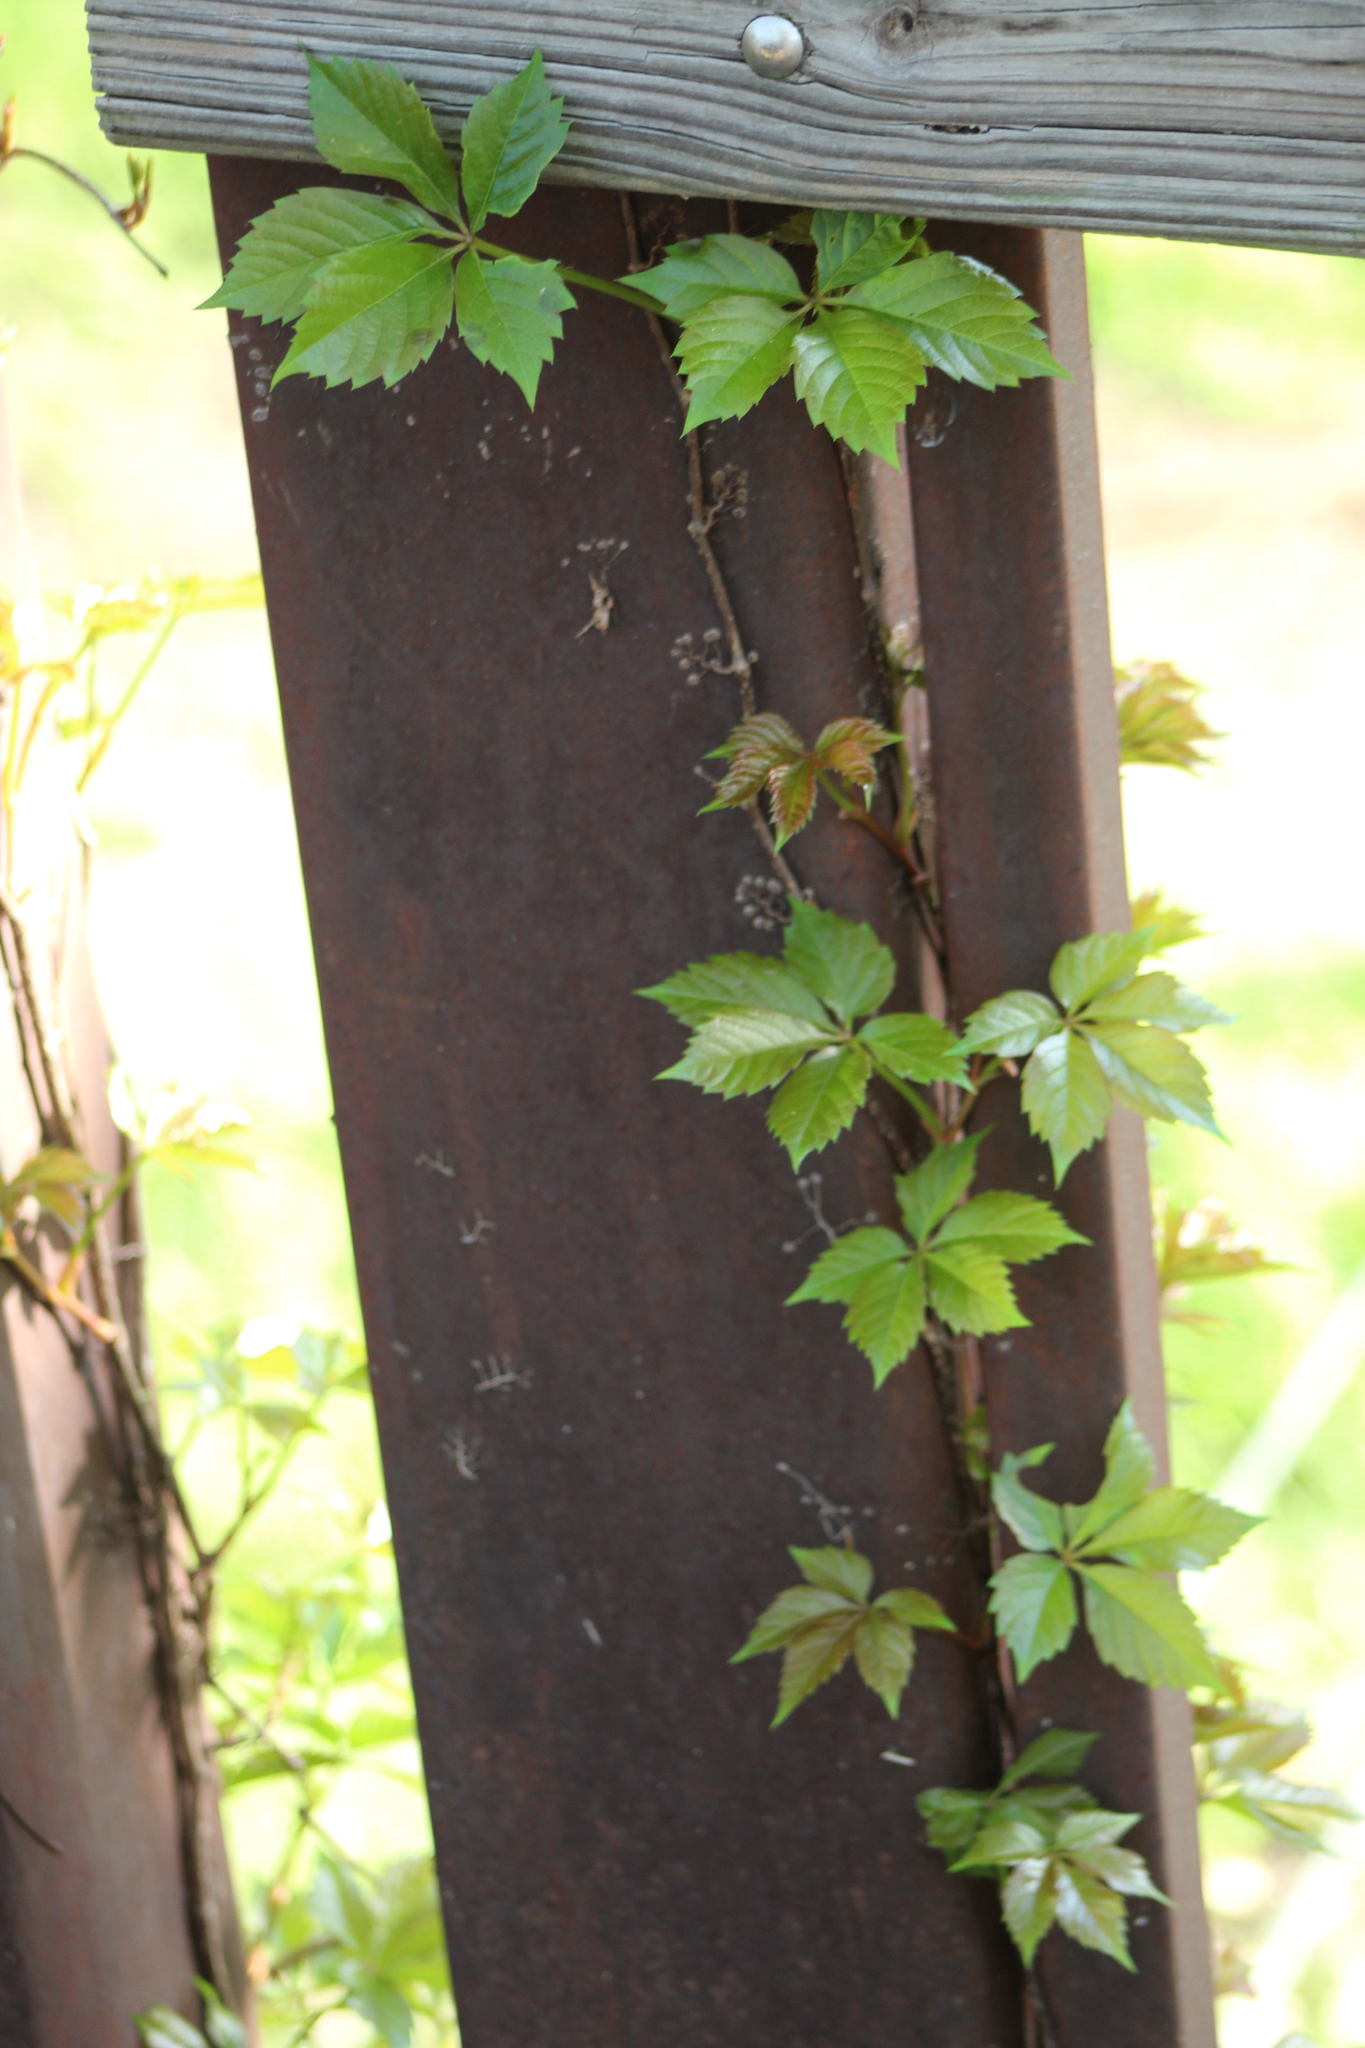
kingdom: Plantae
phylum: Tracheophyta
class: Magnoliopsida
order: Vitales
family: Vitaceae
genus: Parthenocissus
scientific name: Parthenocissus quinquefolia
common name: Virginia-creeper
